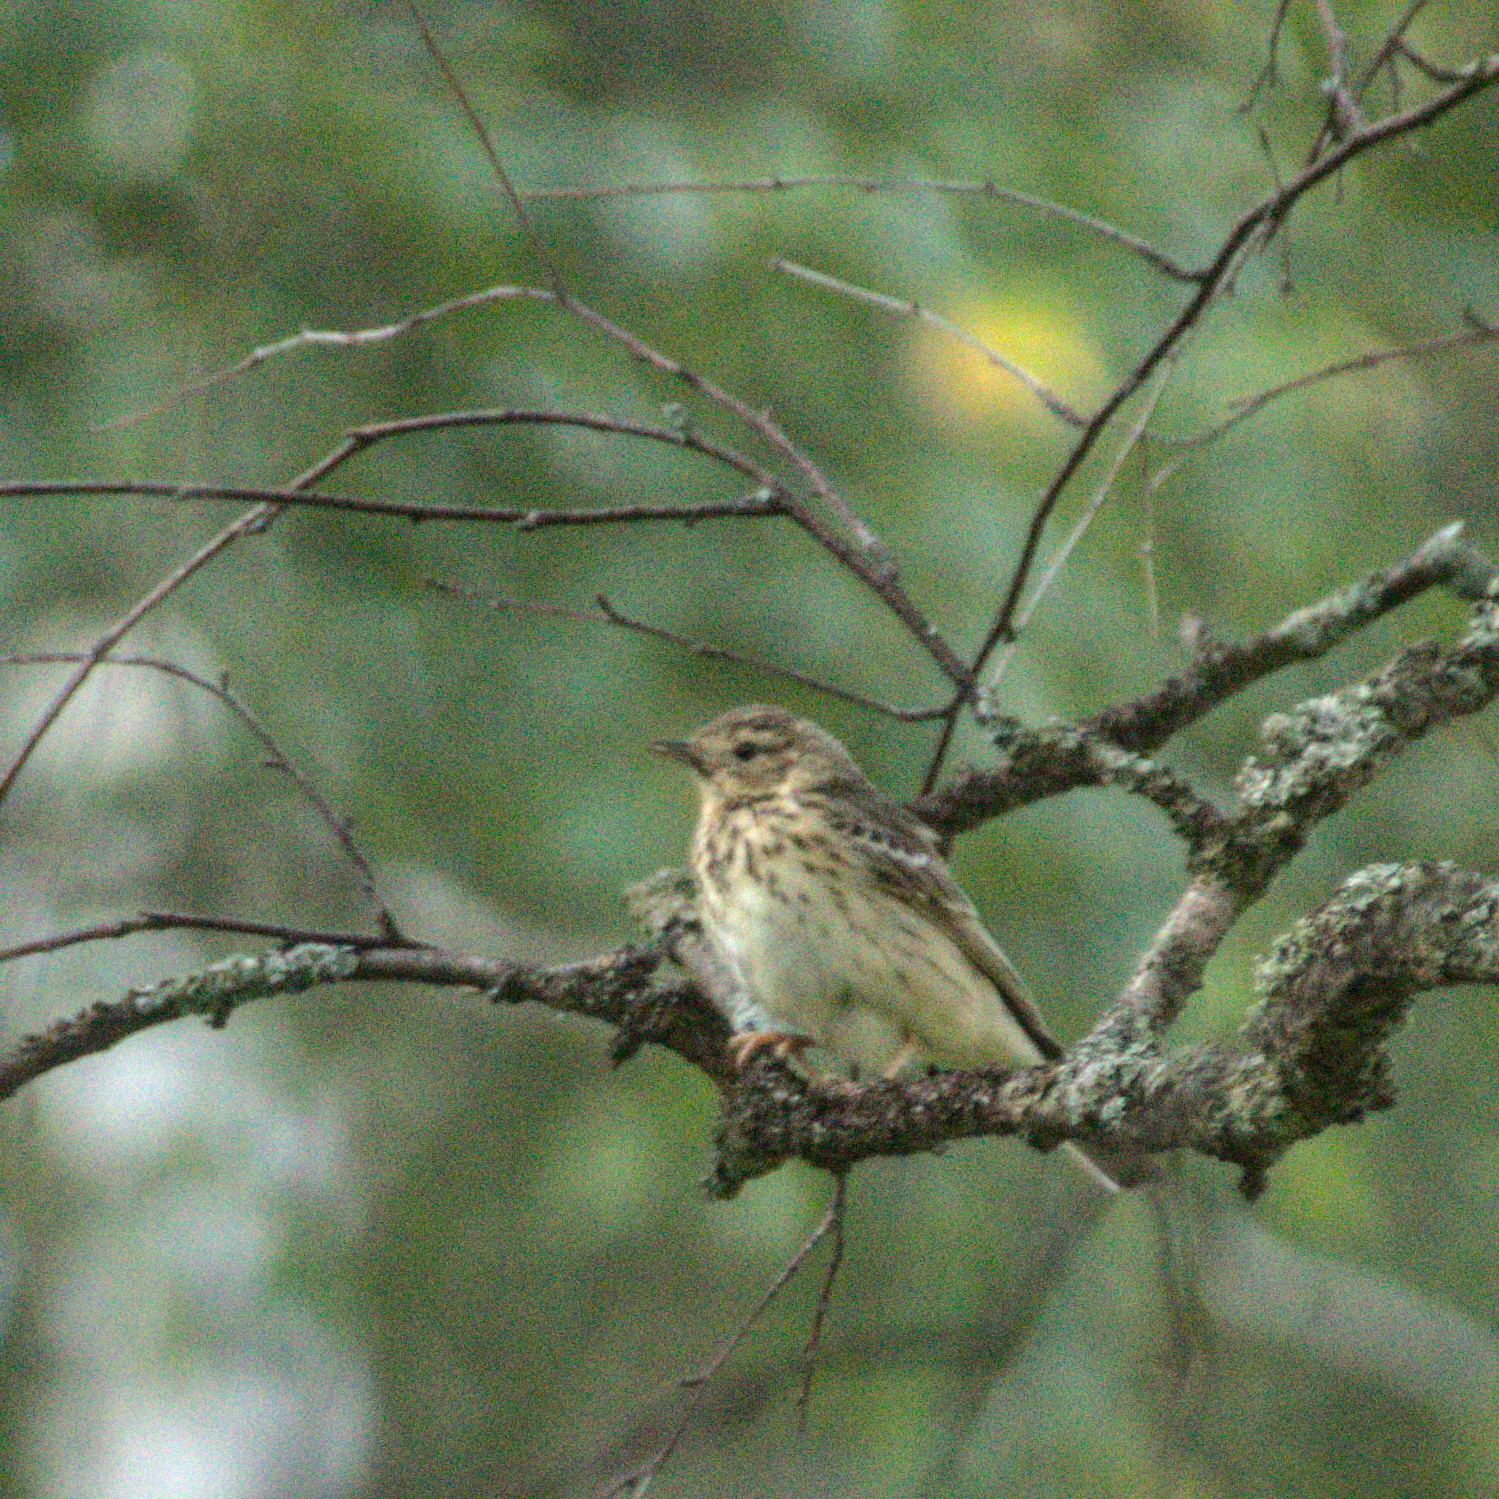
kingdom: Animalia
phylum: Chordata
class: Aves
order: Passeriformes
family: Motacillidae
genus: Anthus
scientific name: Anthus trivialis
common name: Tree pipit
